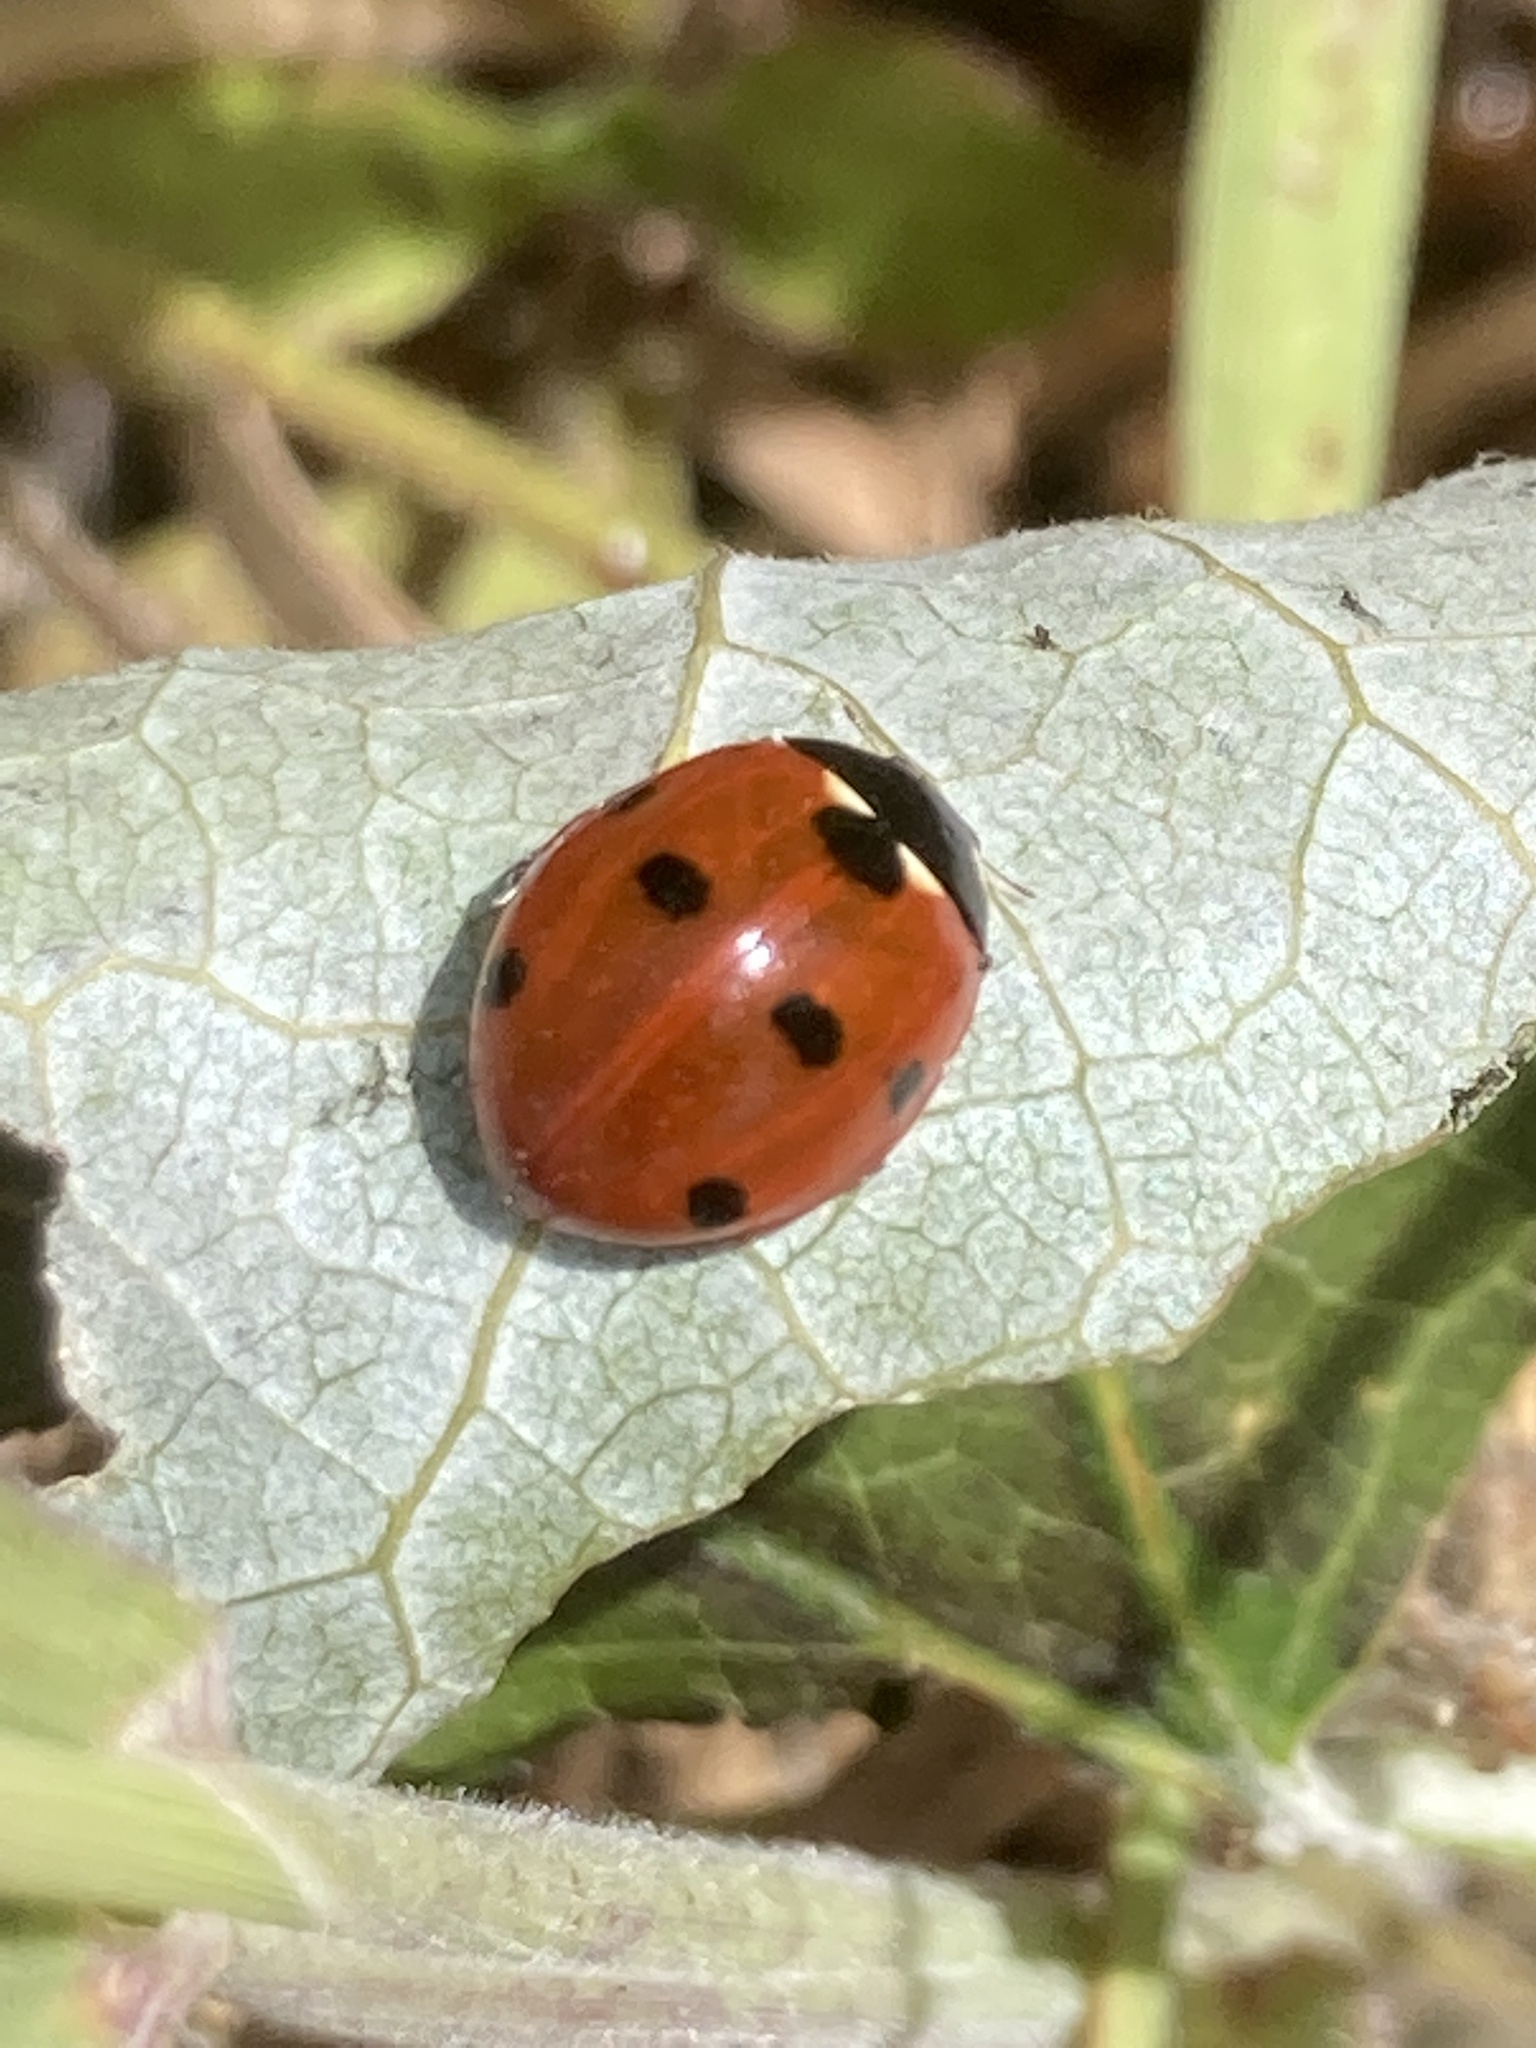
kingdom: Animalia
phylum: Arthropoda
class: Insecta
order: Coleoptera
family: Coccinellidae
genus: Coccinella
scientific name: Coccinella septempunctata
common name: Sevenspotted lady beetle
